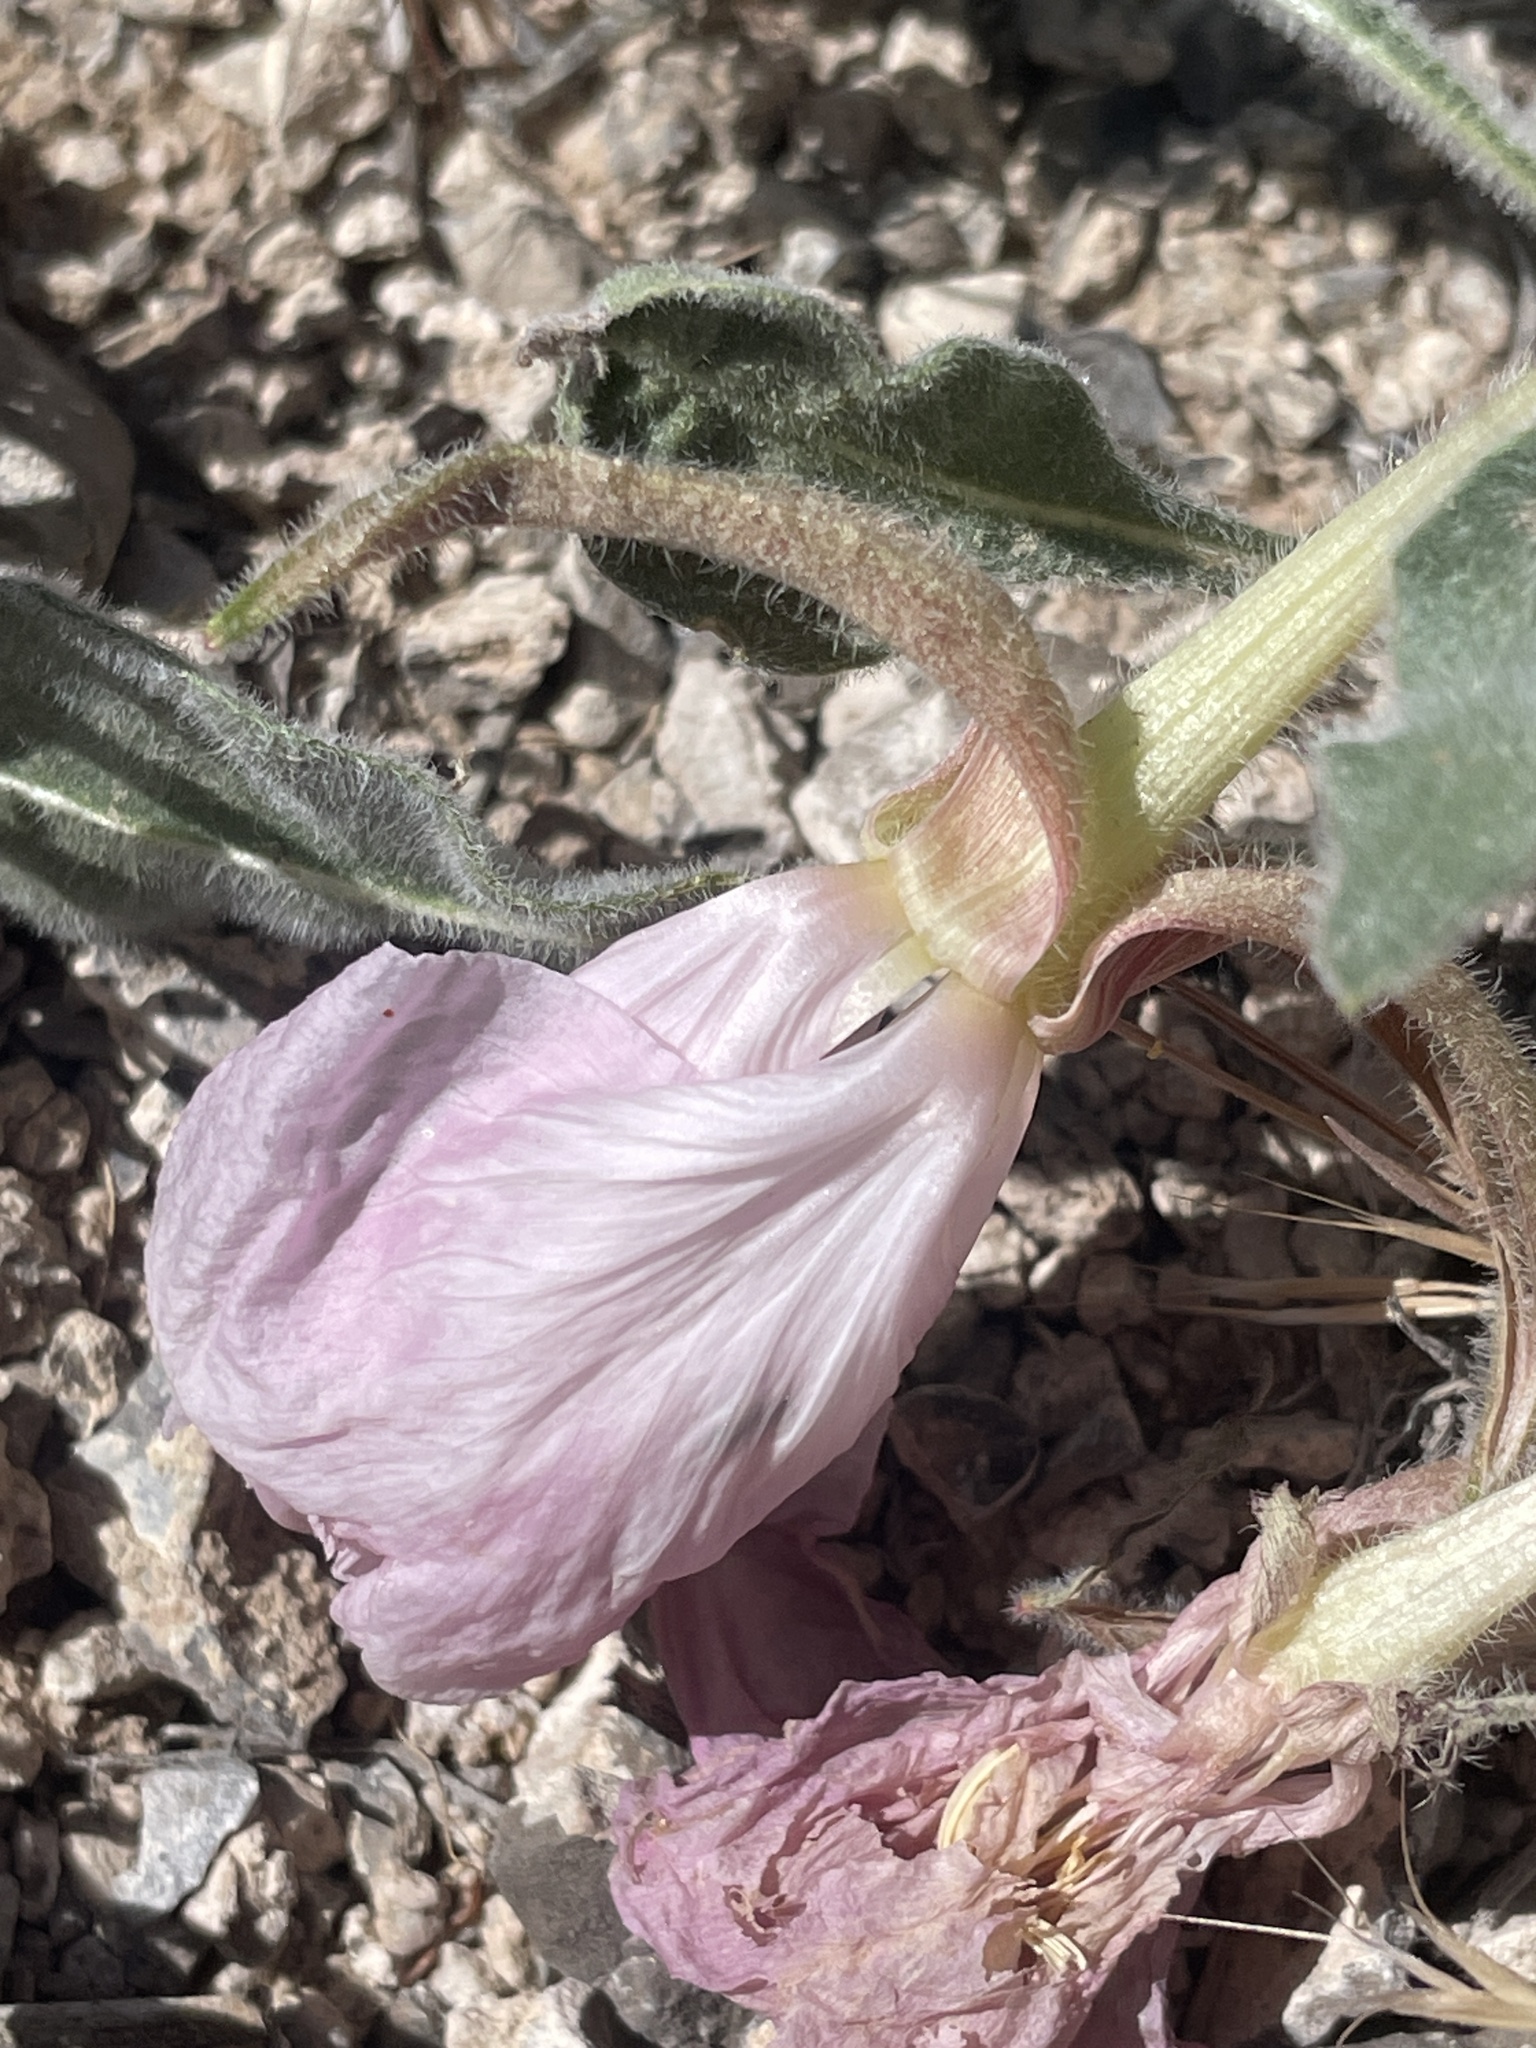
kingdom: Plantae
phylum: Tracheophyta
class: Magnoliopsida
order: Myrtales
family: Onagraceae
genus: Oenothera
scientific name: Oenothera cespitosa
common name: Tufted evening-primrose
